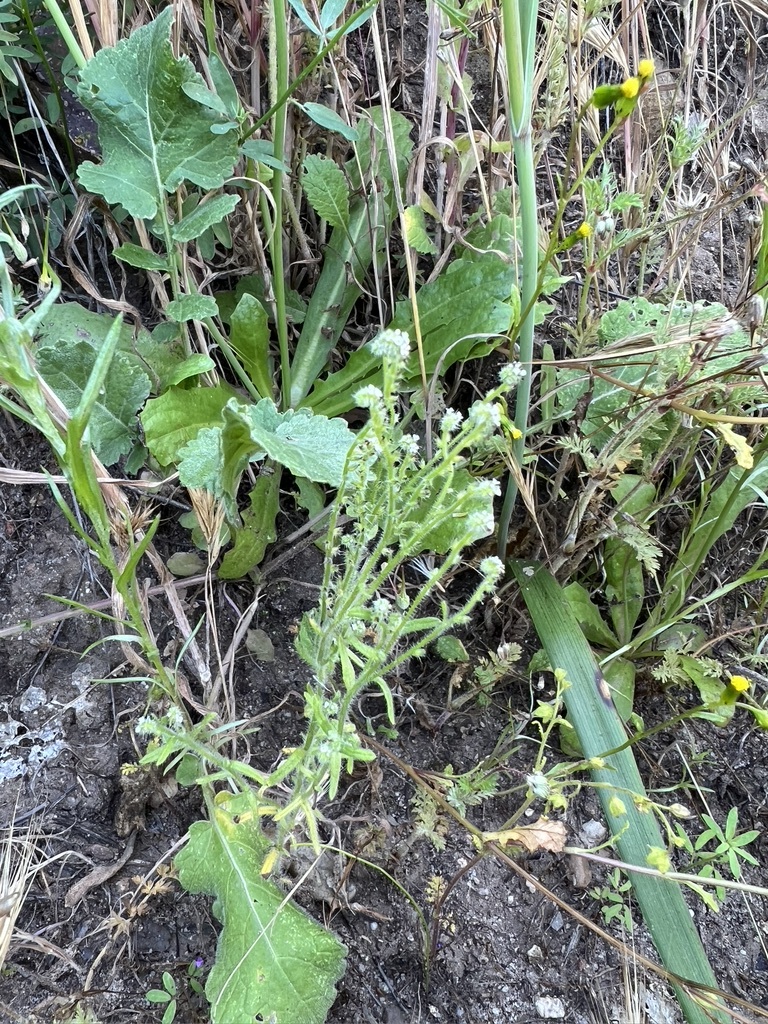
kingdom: Plantae
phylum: Tracheophyta
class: Magnoliopsida
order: Boraginales
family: Boraginaceae
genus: Cryptantha
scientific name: Cryptantha microstachys
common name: Tejon cryptantha
